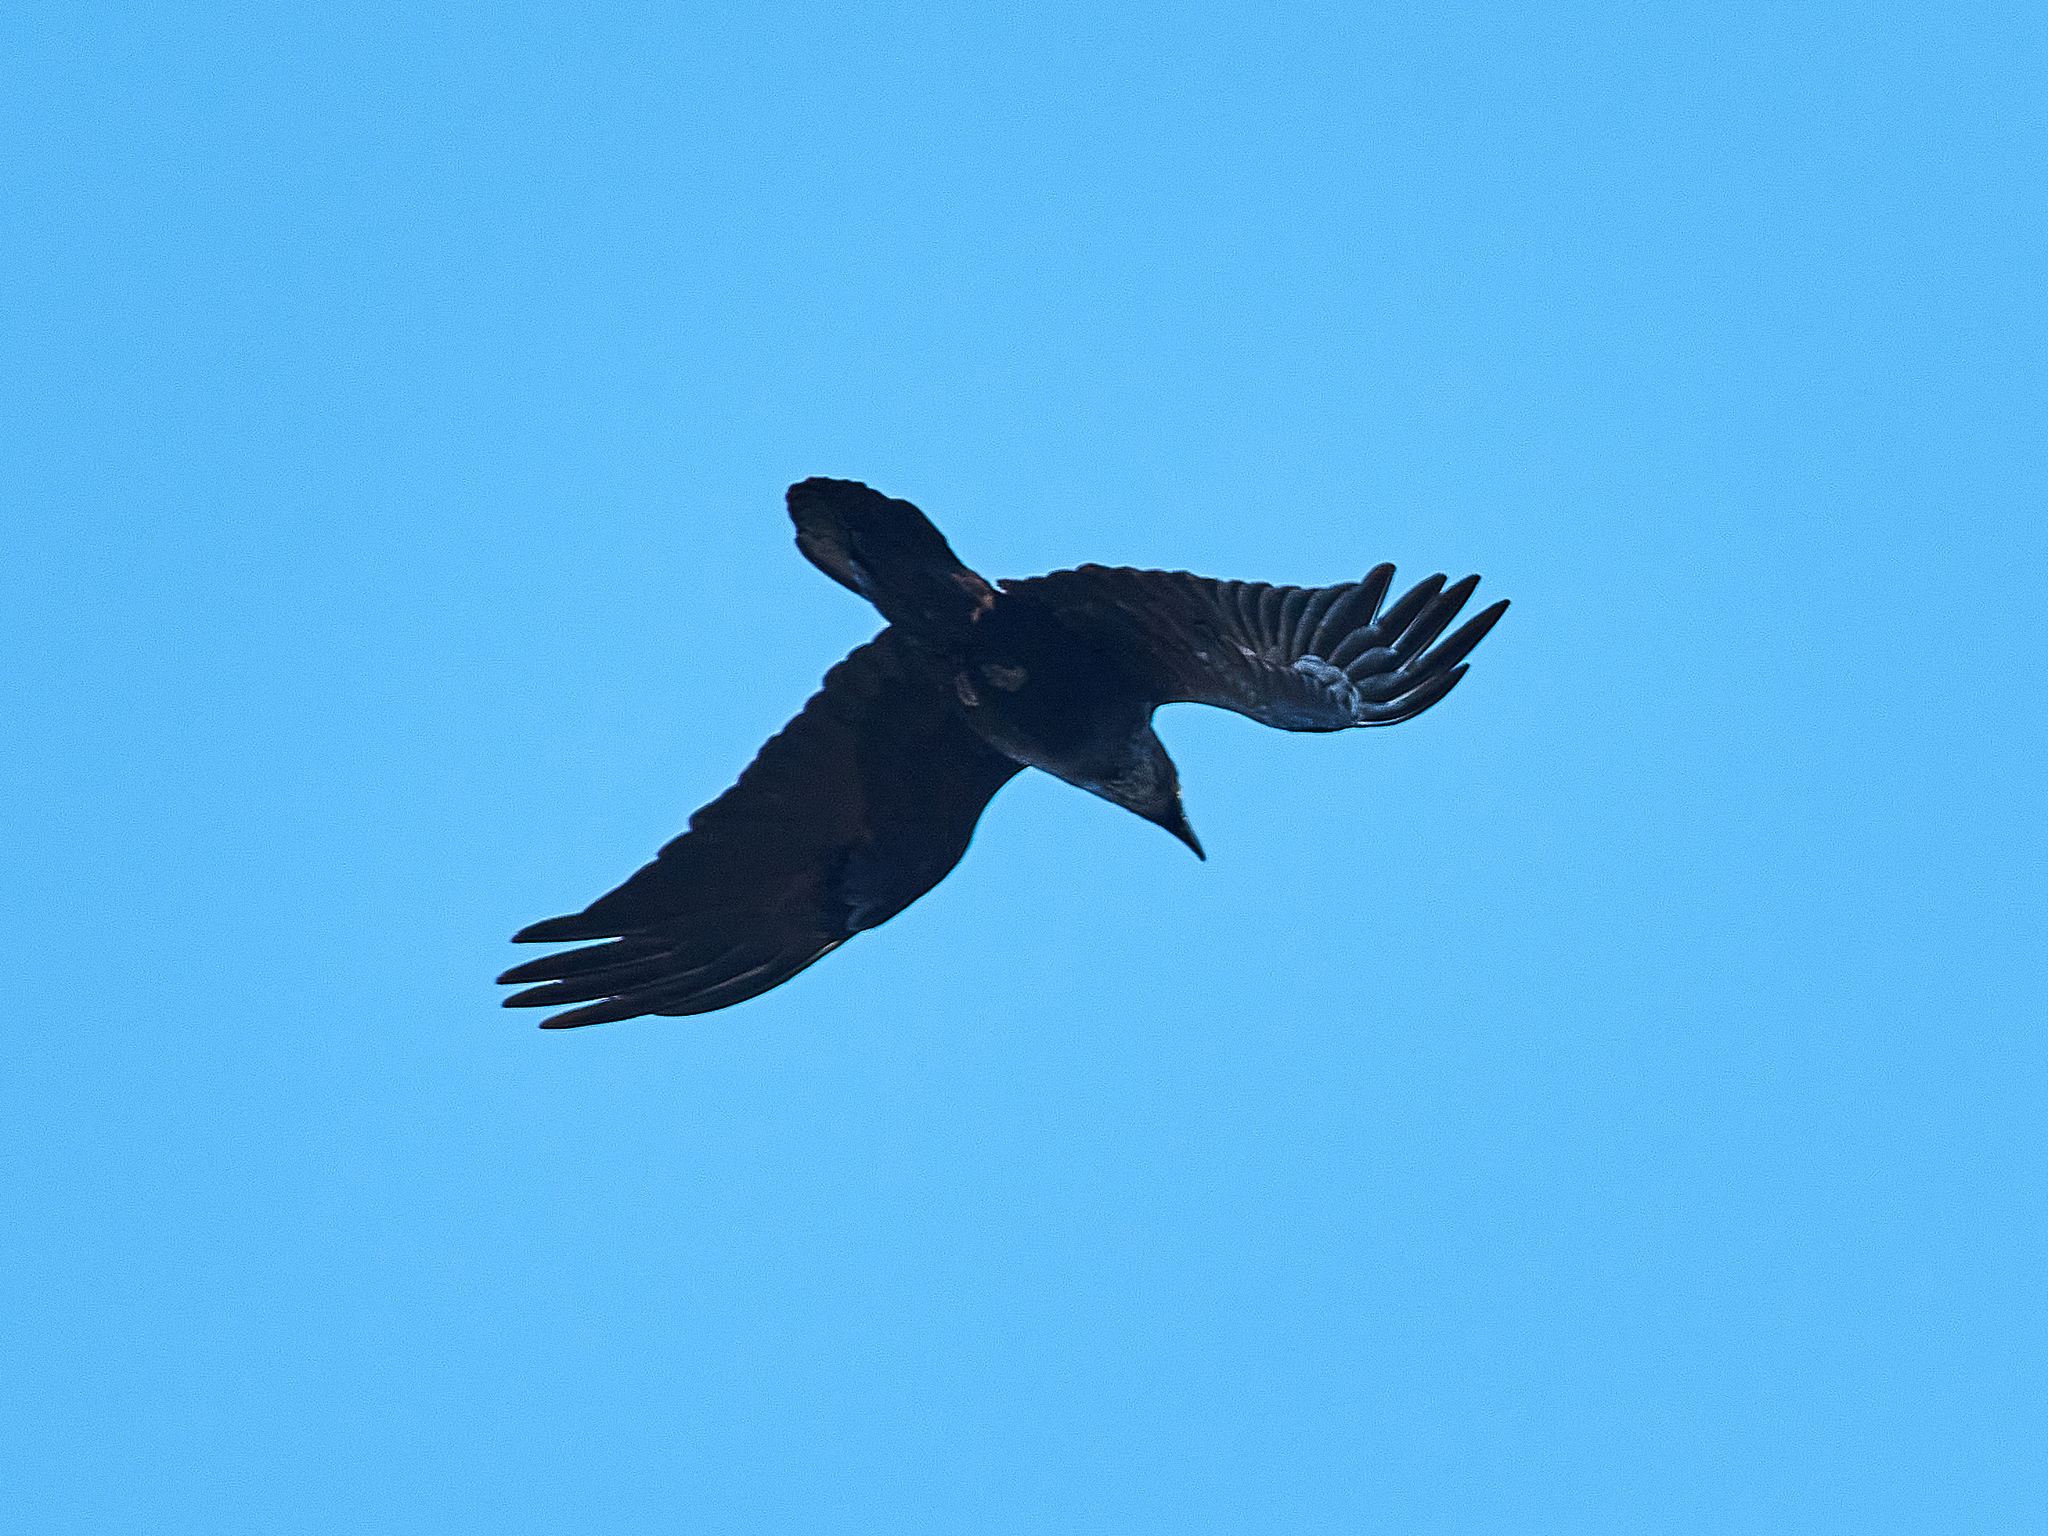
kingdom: Animalia
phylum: Chordata
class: Aves
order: Passeriformes
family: Corvidae
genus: Corvus
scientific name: Corvus corax
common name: Common raven
